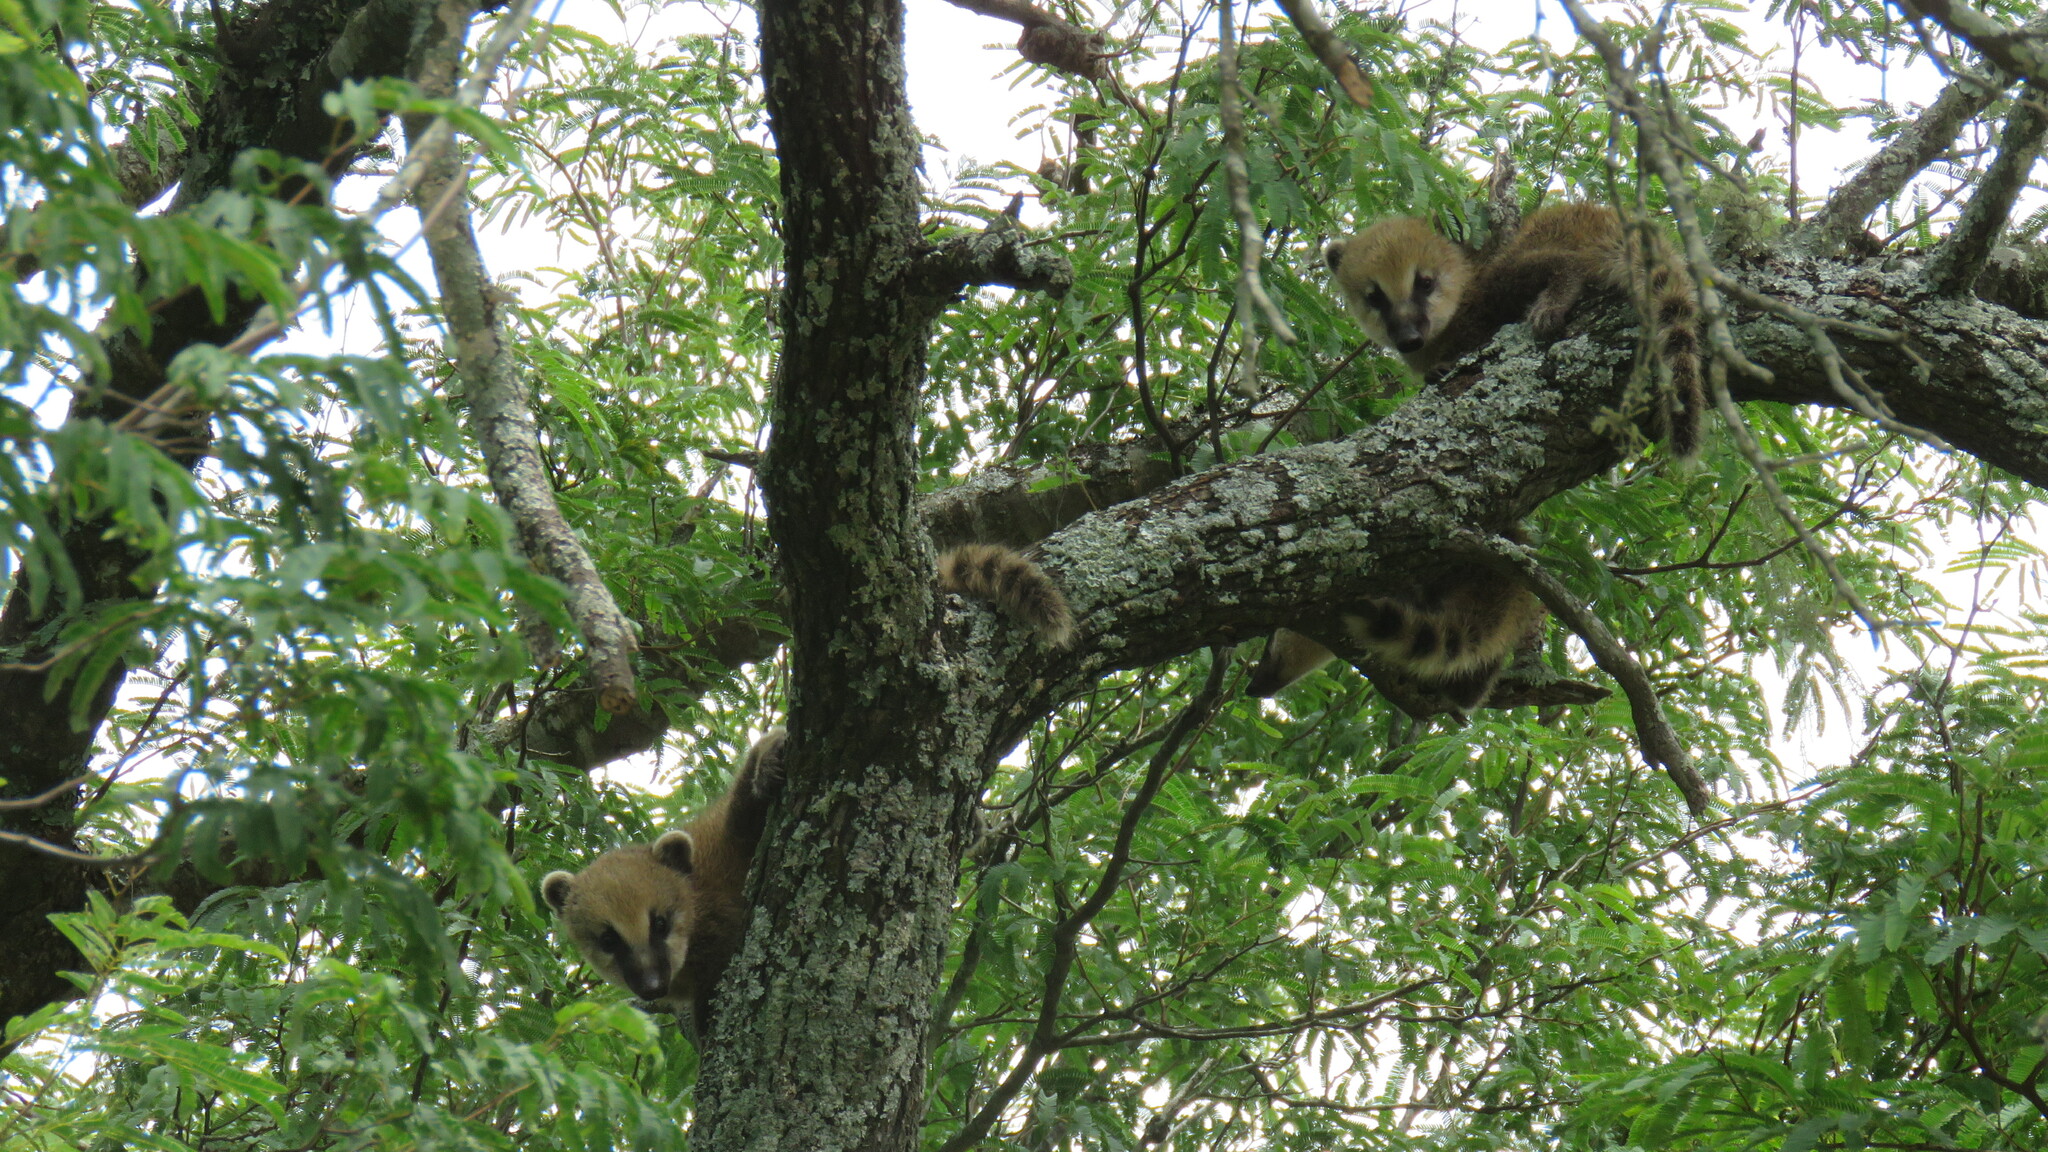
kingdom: Animalia
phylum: Chordata
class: Mammalia
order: Carnivora
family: Procyonidae
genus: Nasua
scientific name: Nasua nasua
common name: South american coati
